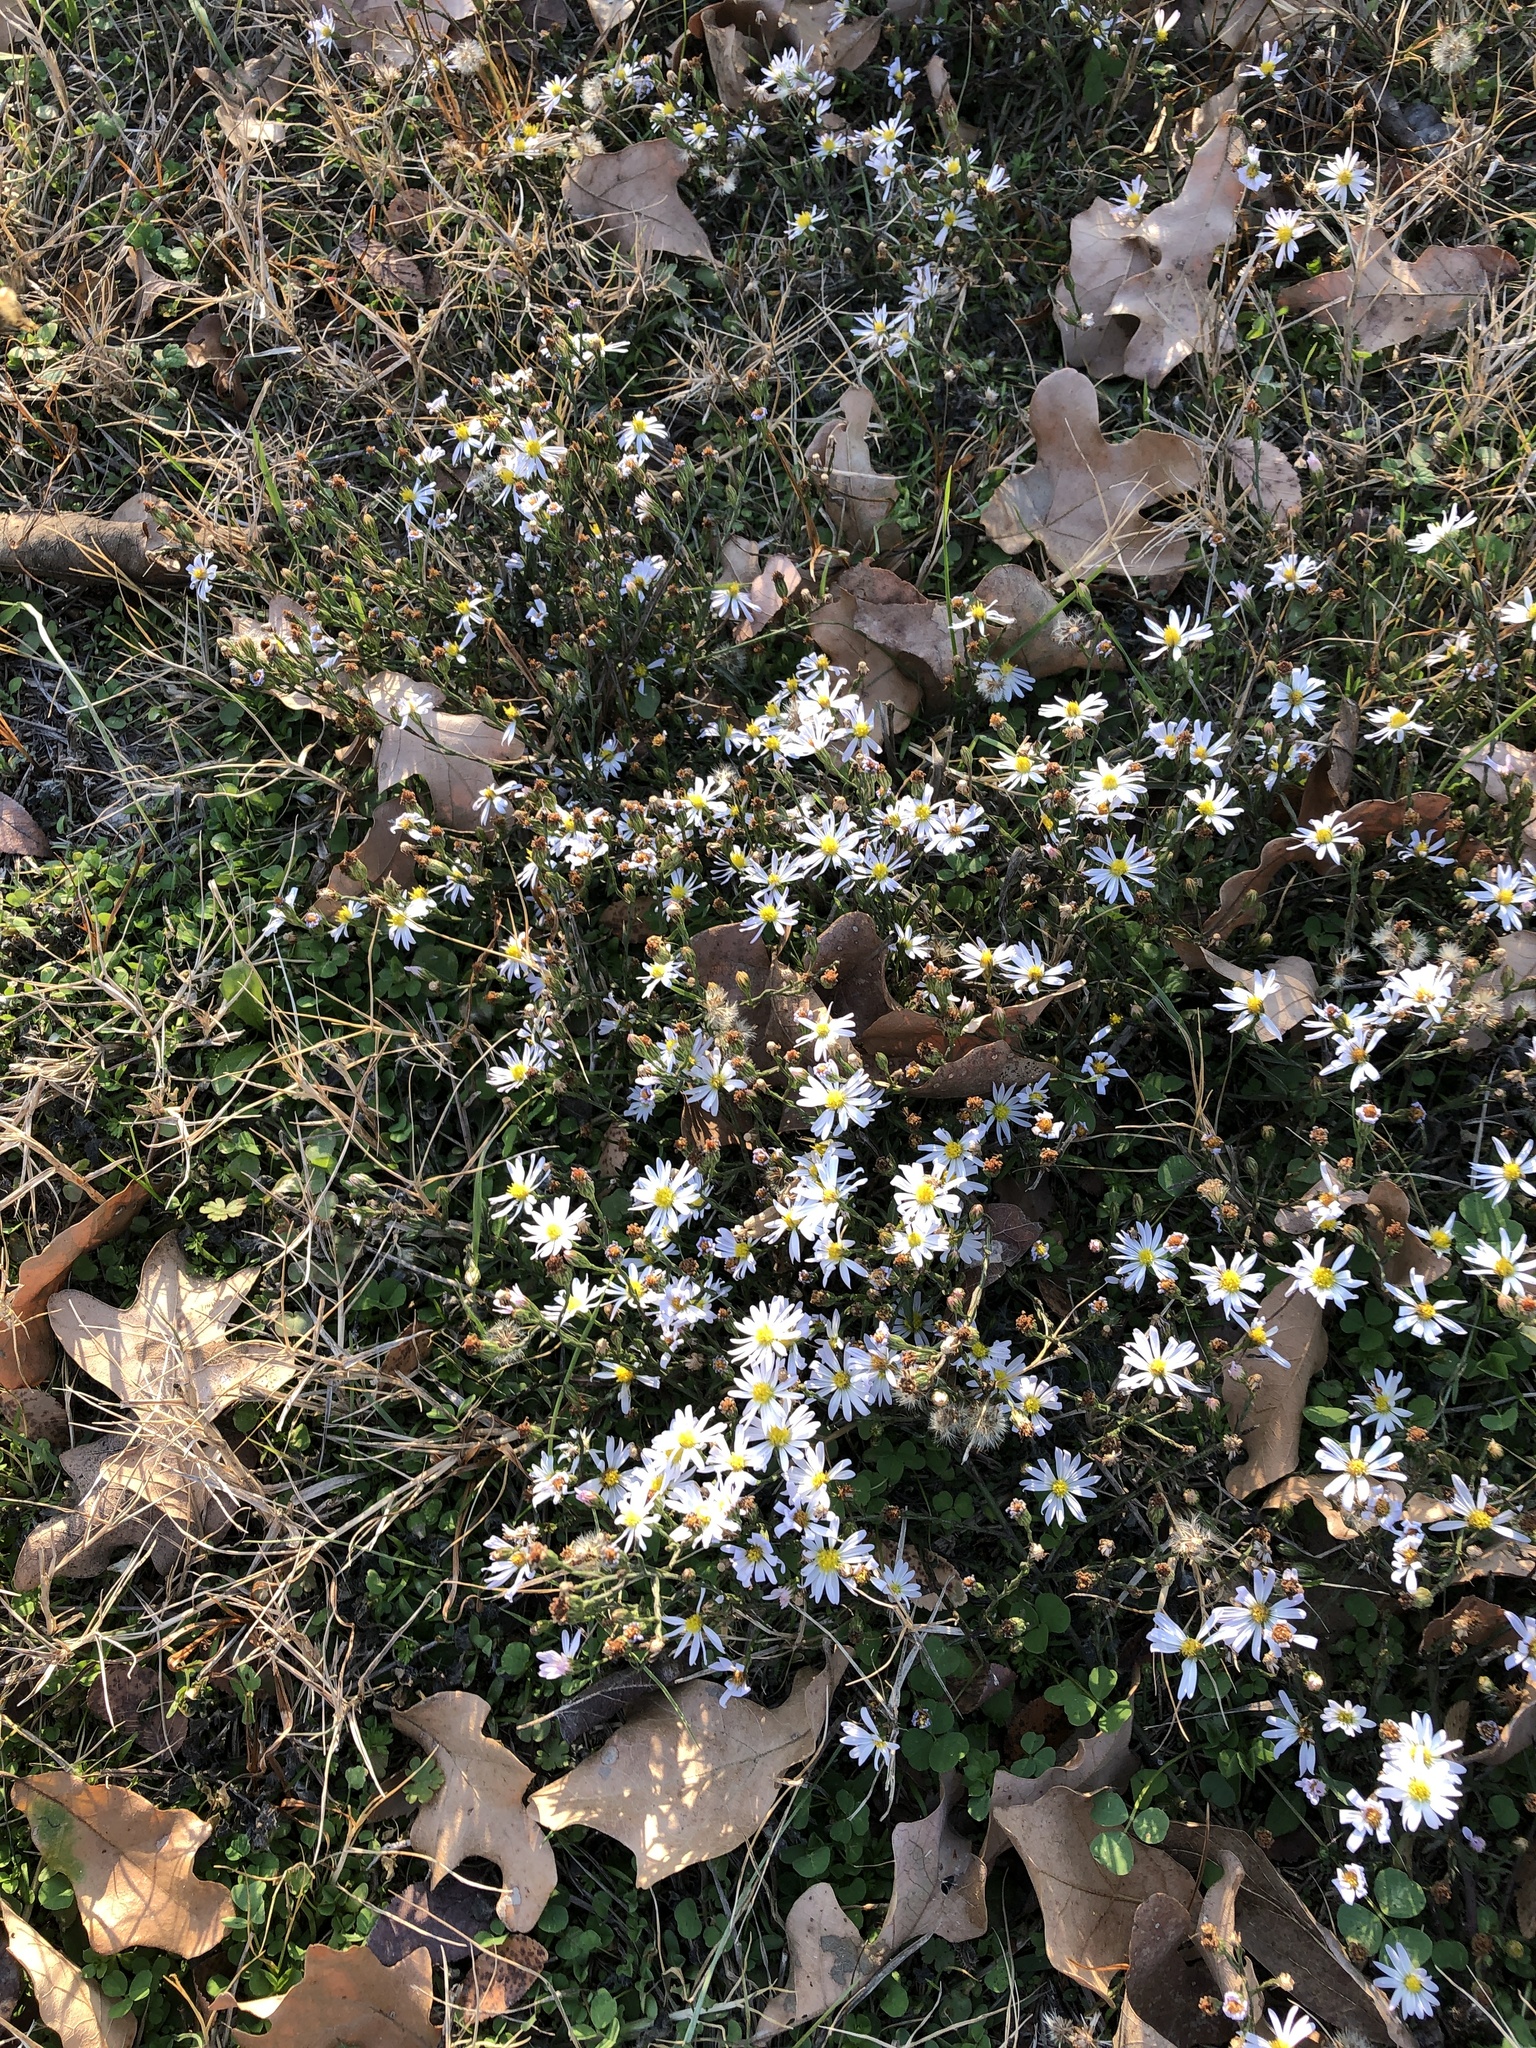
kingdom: Plantae
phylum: Tracheophyta
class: Magnoliopsida
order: Asterales
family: Asteraceae
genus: Symphyotrichum
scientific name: Symphyotrichum divaricatum
